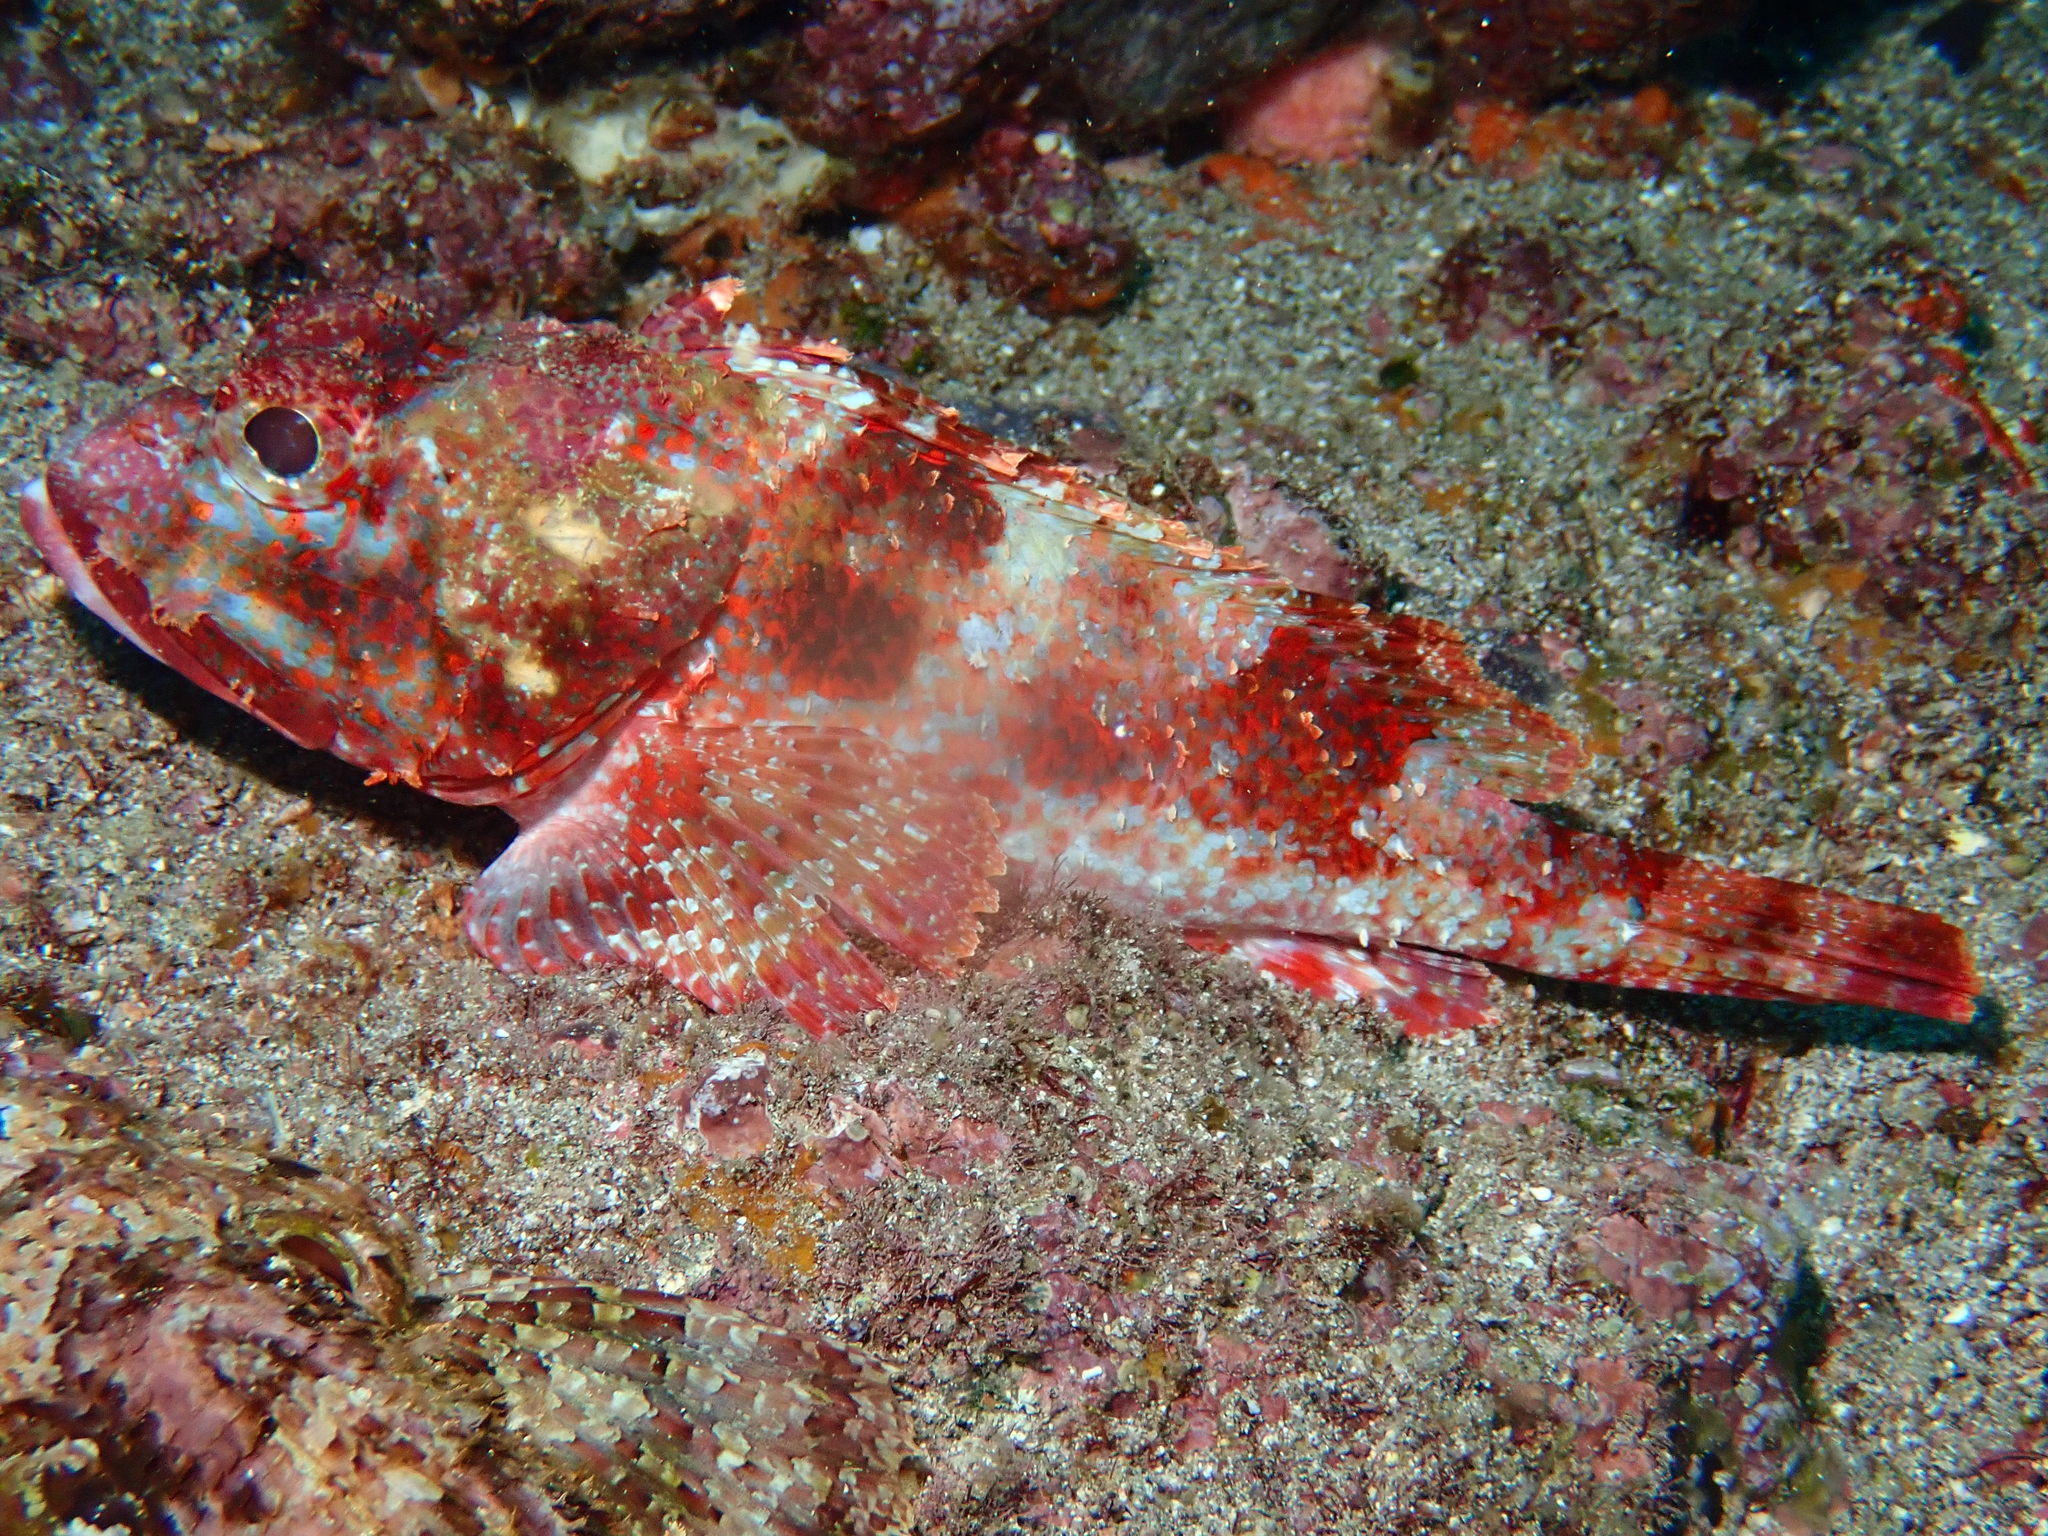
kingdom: Animalia
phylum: Chordata
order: Scorpaeniformes
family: Scorpaenidae
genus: Scorpaena
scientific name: Scorpaena histrio
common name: Player scorpionfish
